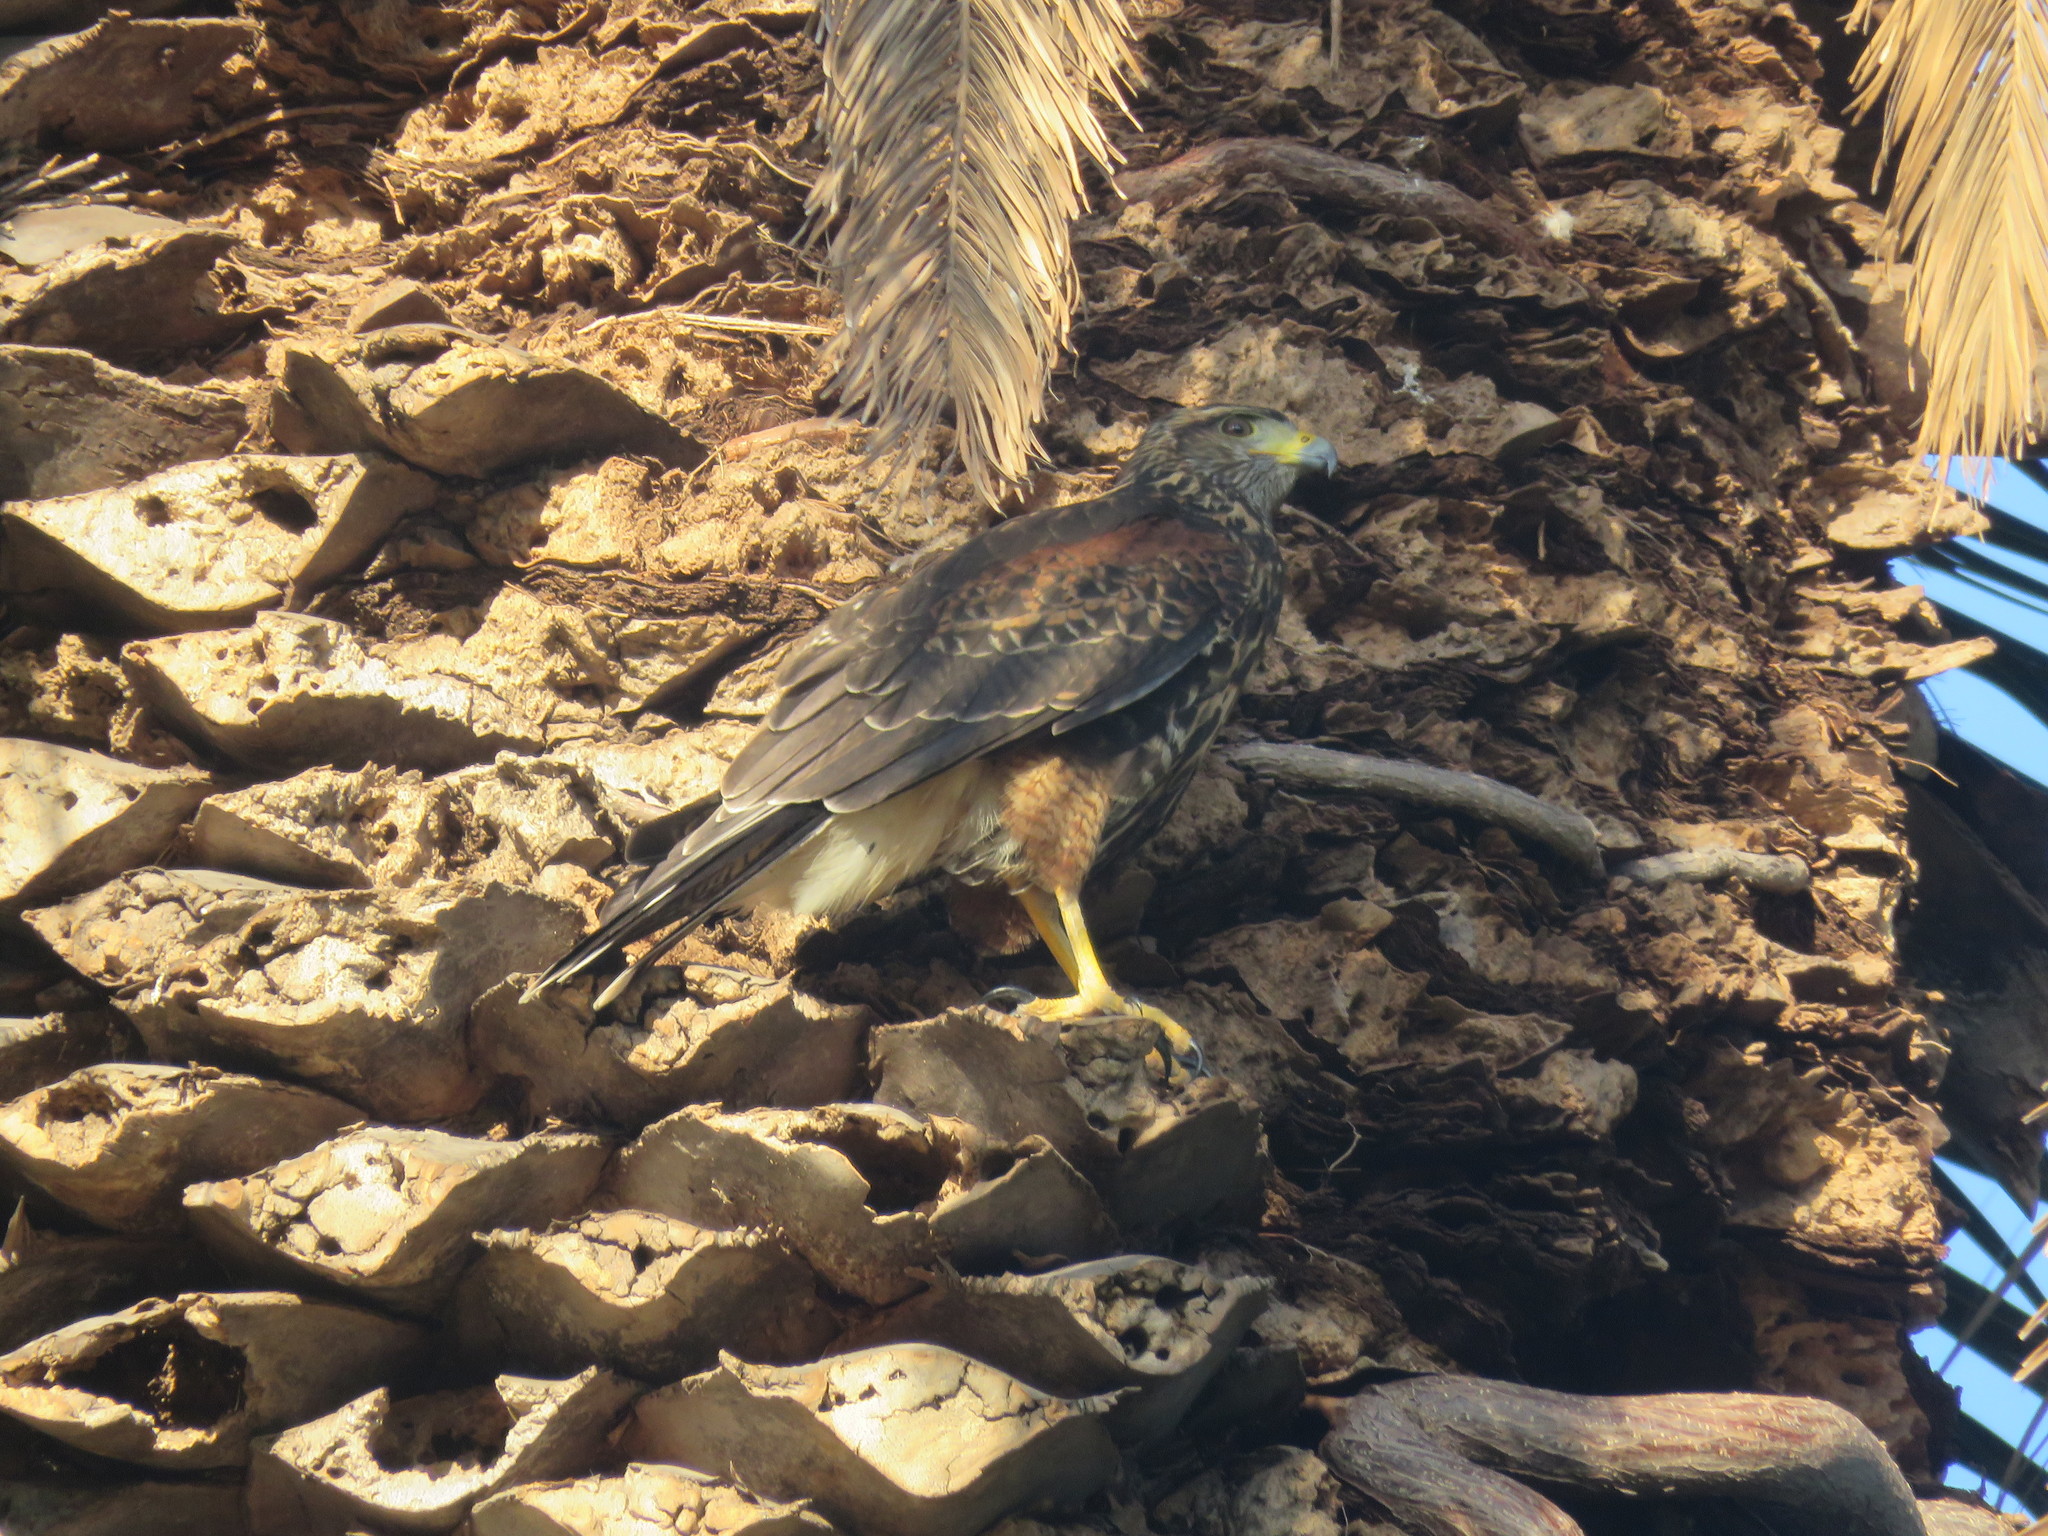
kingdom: Animalia
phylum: Chordata
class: Aves
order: Accipitriformes
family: Accipitridae
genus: Parabuteo
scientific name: Parabuteo unicinctus
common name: Harris's hawk
